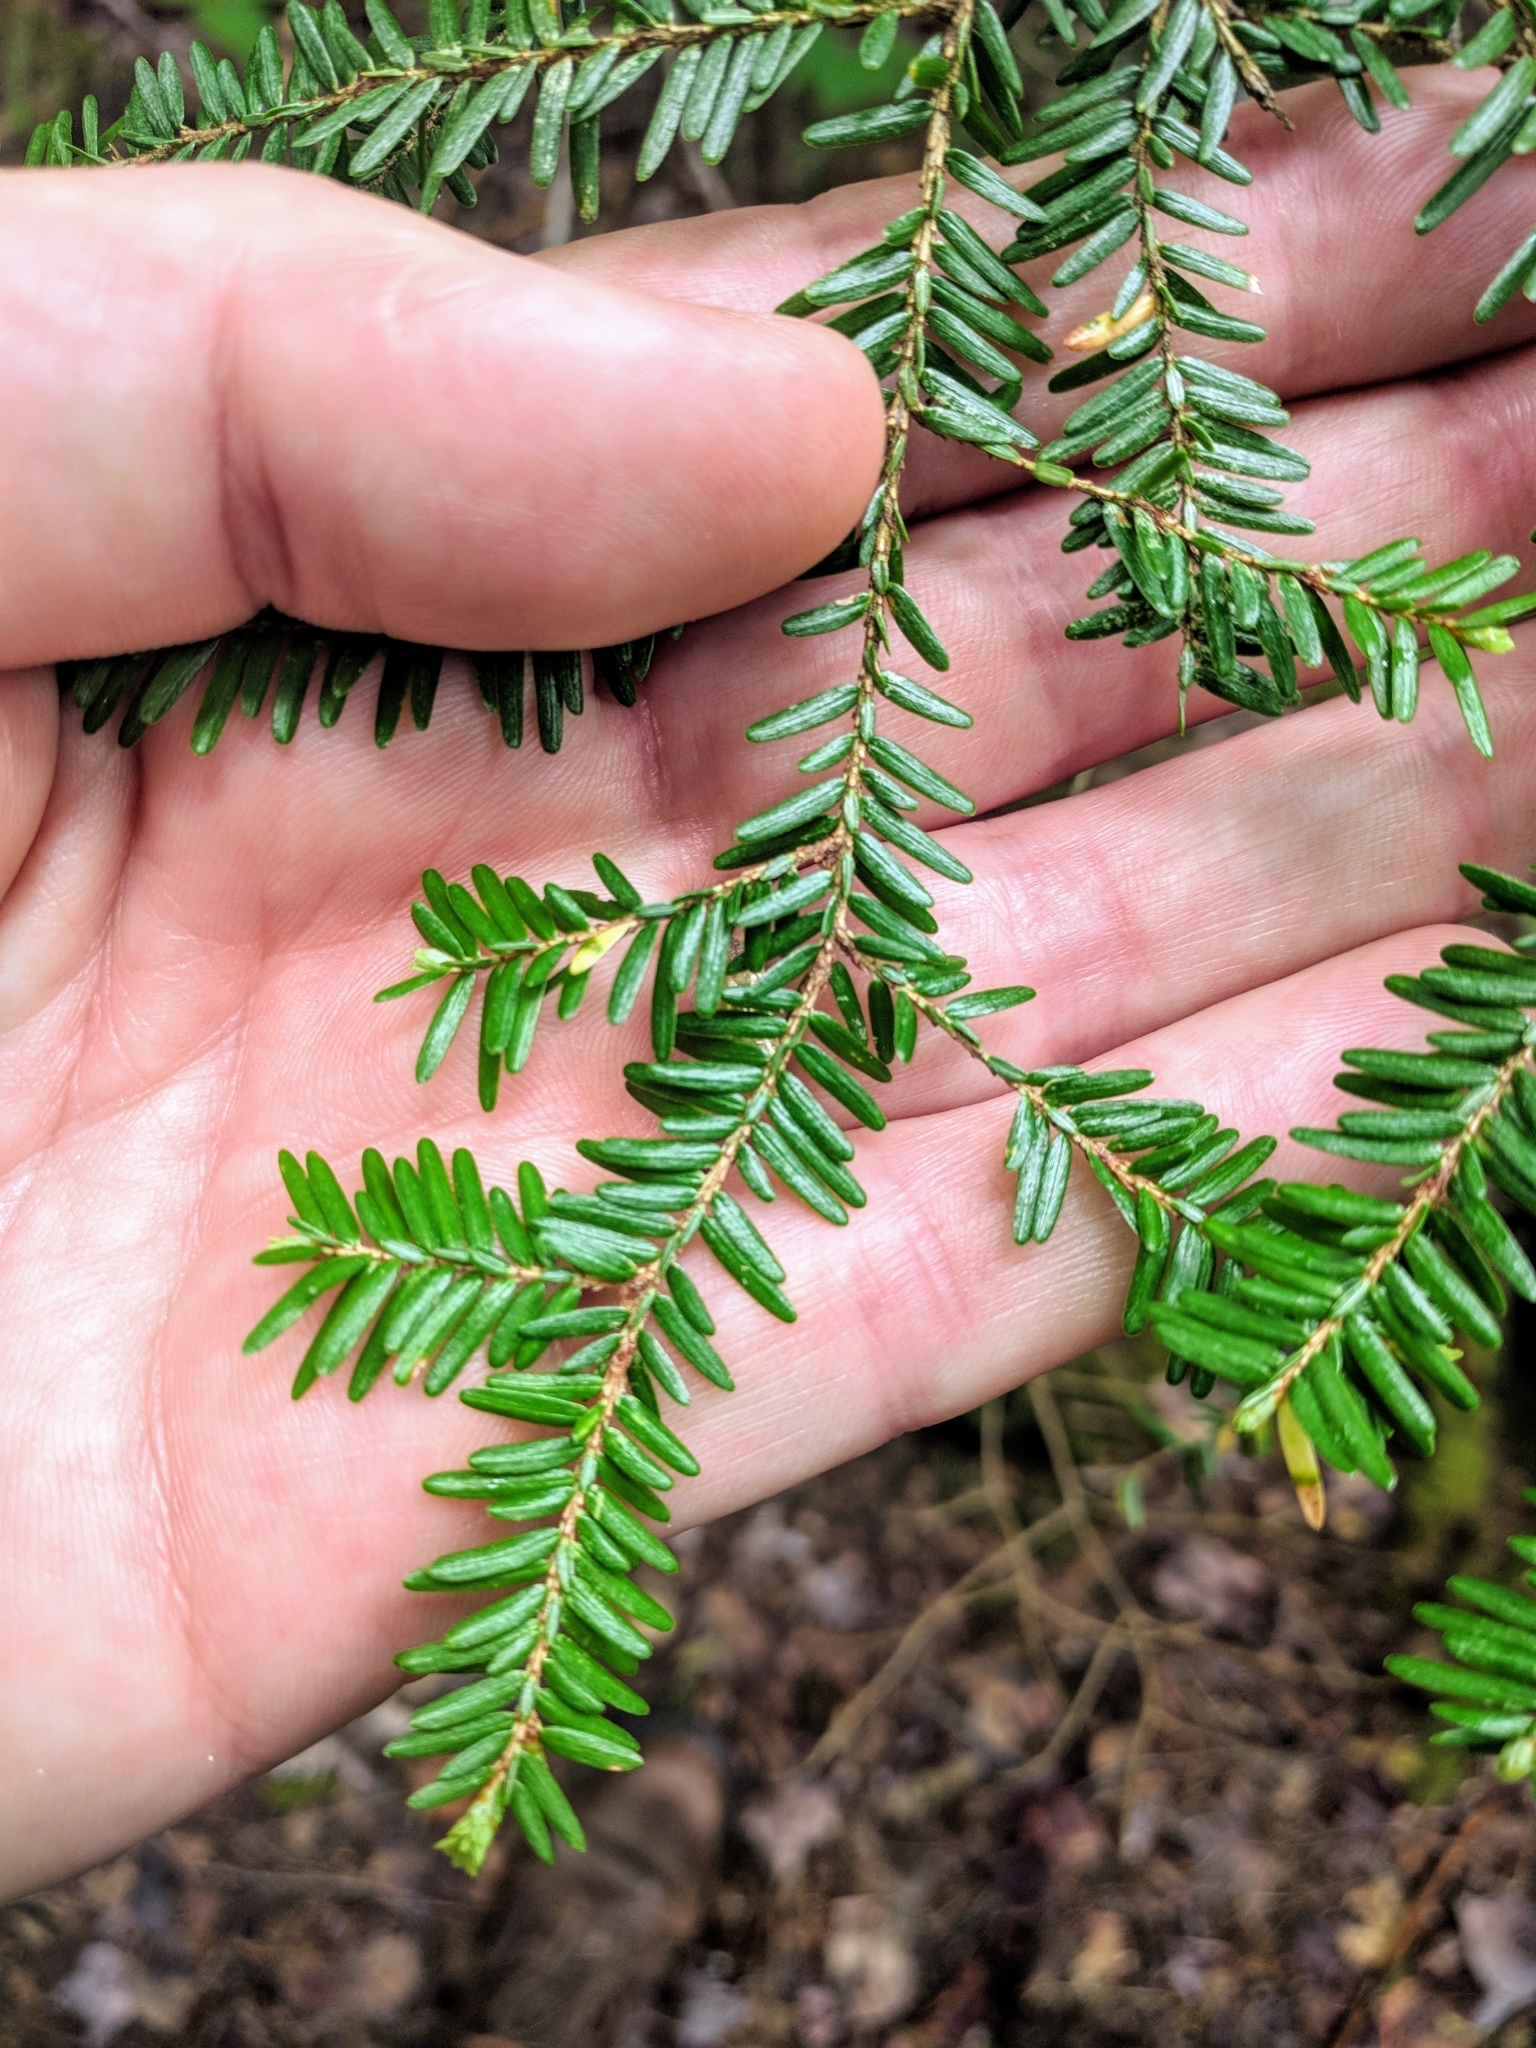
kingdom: Plantae
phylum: Tracheophyta
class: Pinopsida
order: Pinales
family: Pinaceae
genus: Tsuga
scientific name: Tsuga canadensis
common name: Eastern hemlock
